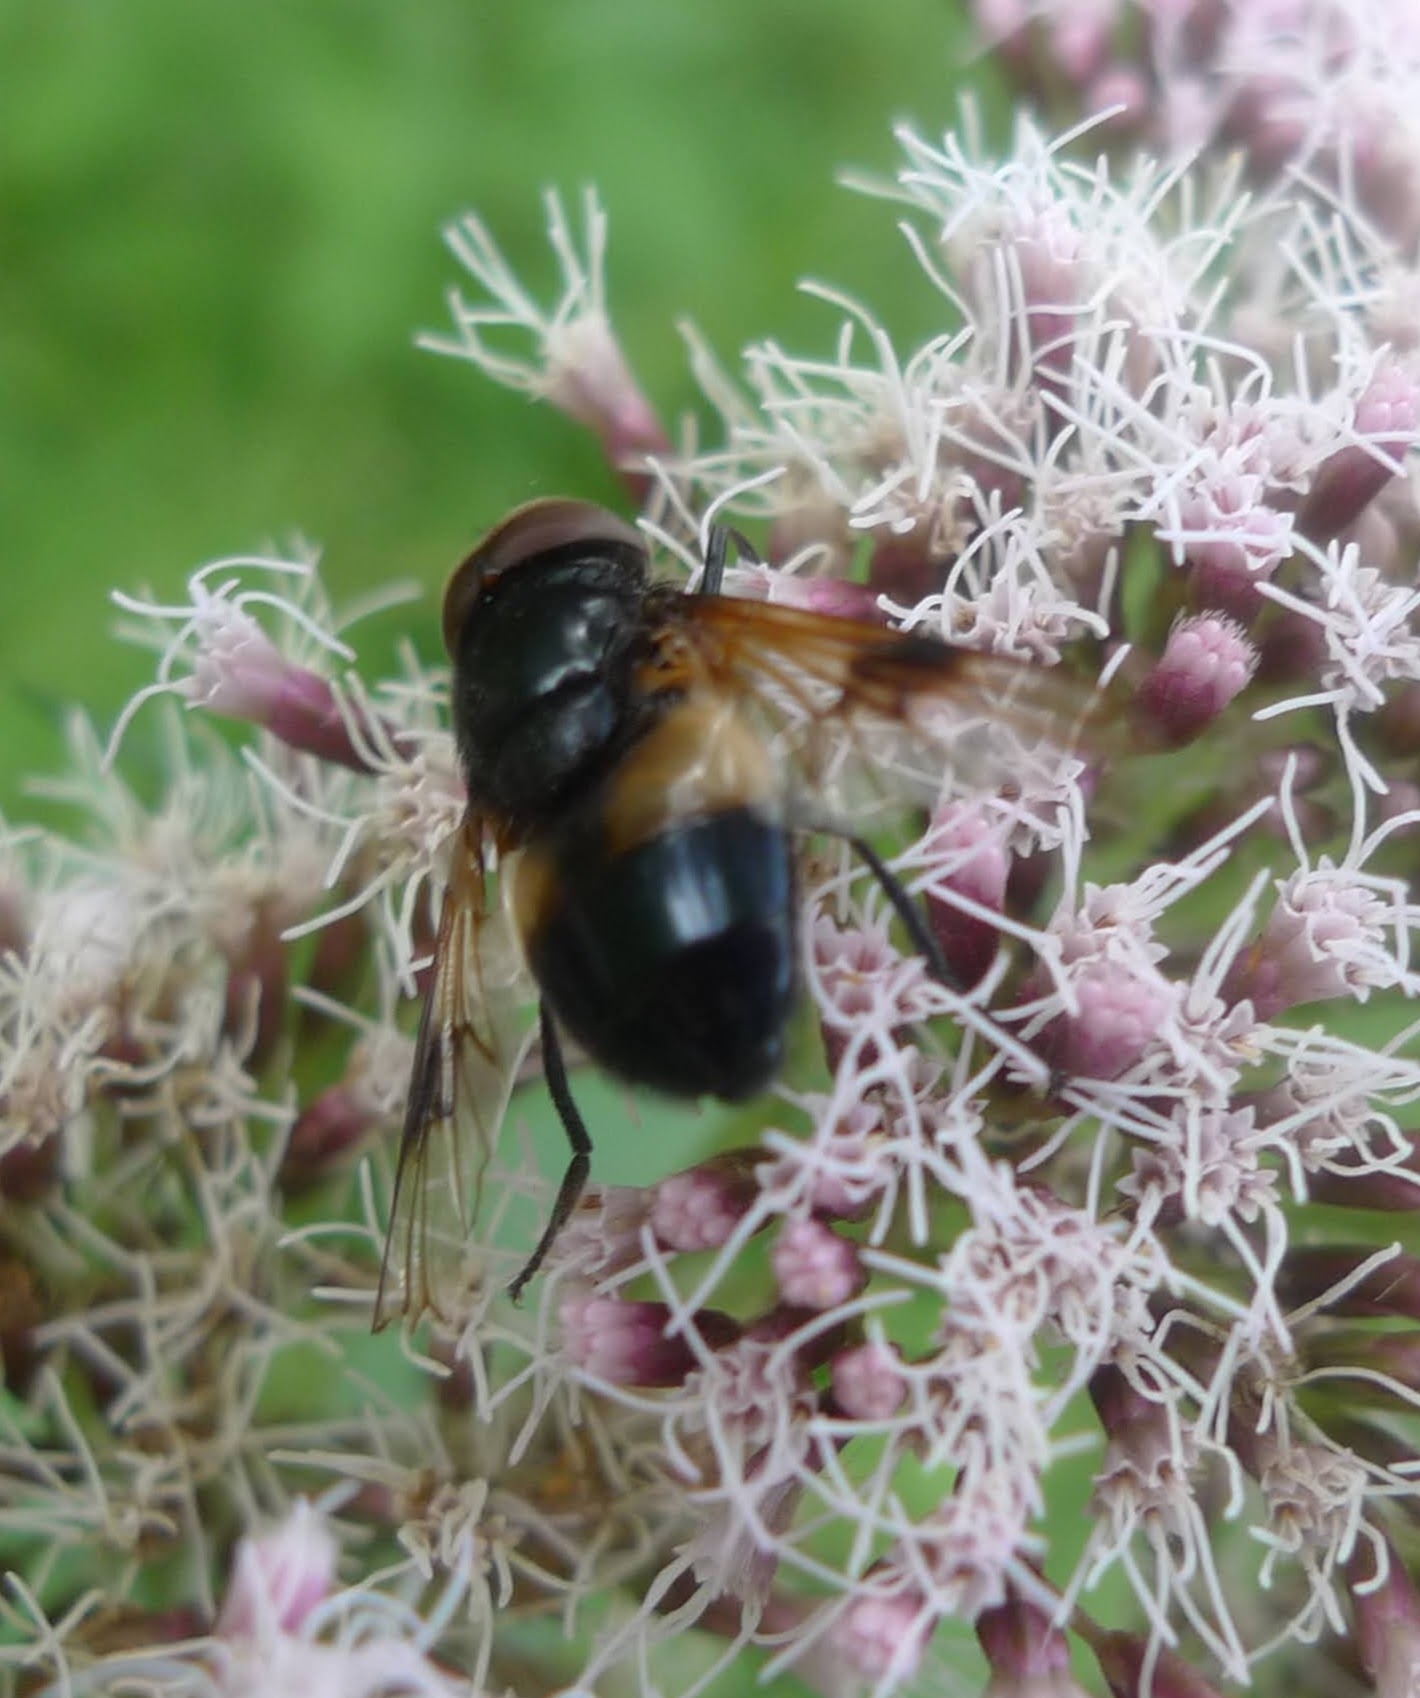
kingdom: Animalia
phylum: Arthropoda
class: Insecta
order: Diptera
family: Syrphidae
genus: Volucella
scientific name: Volucella pellucens
